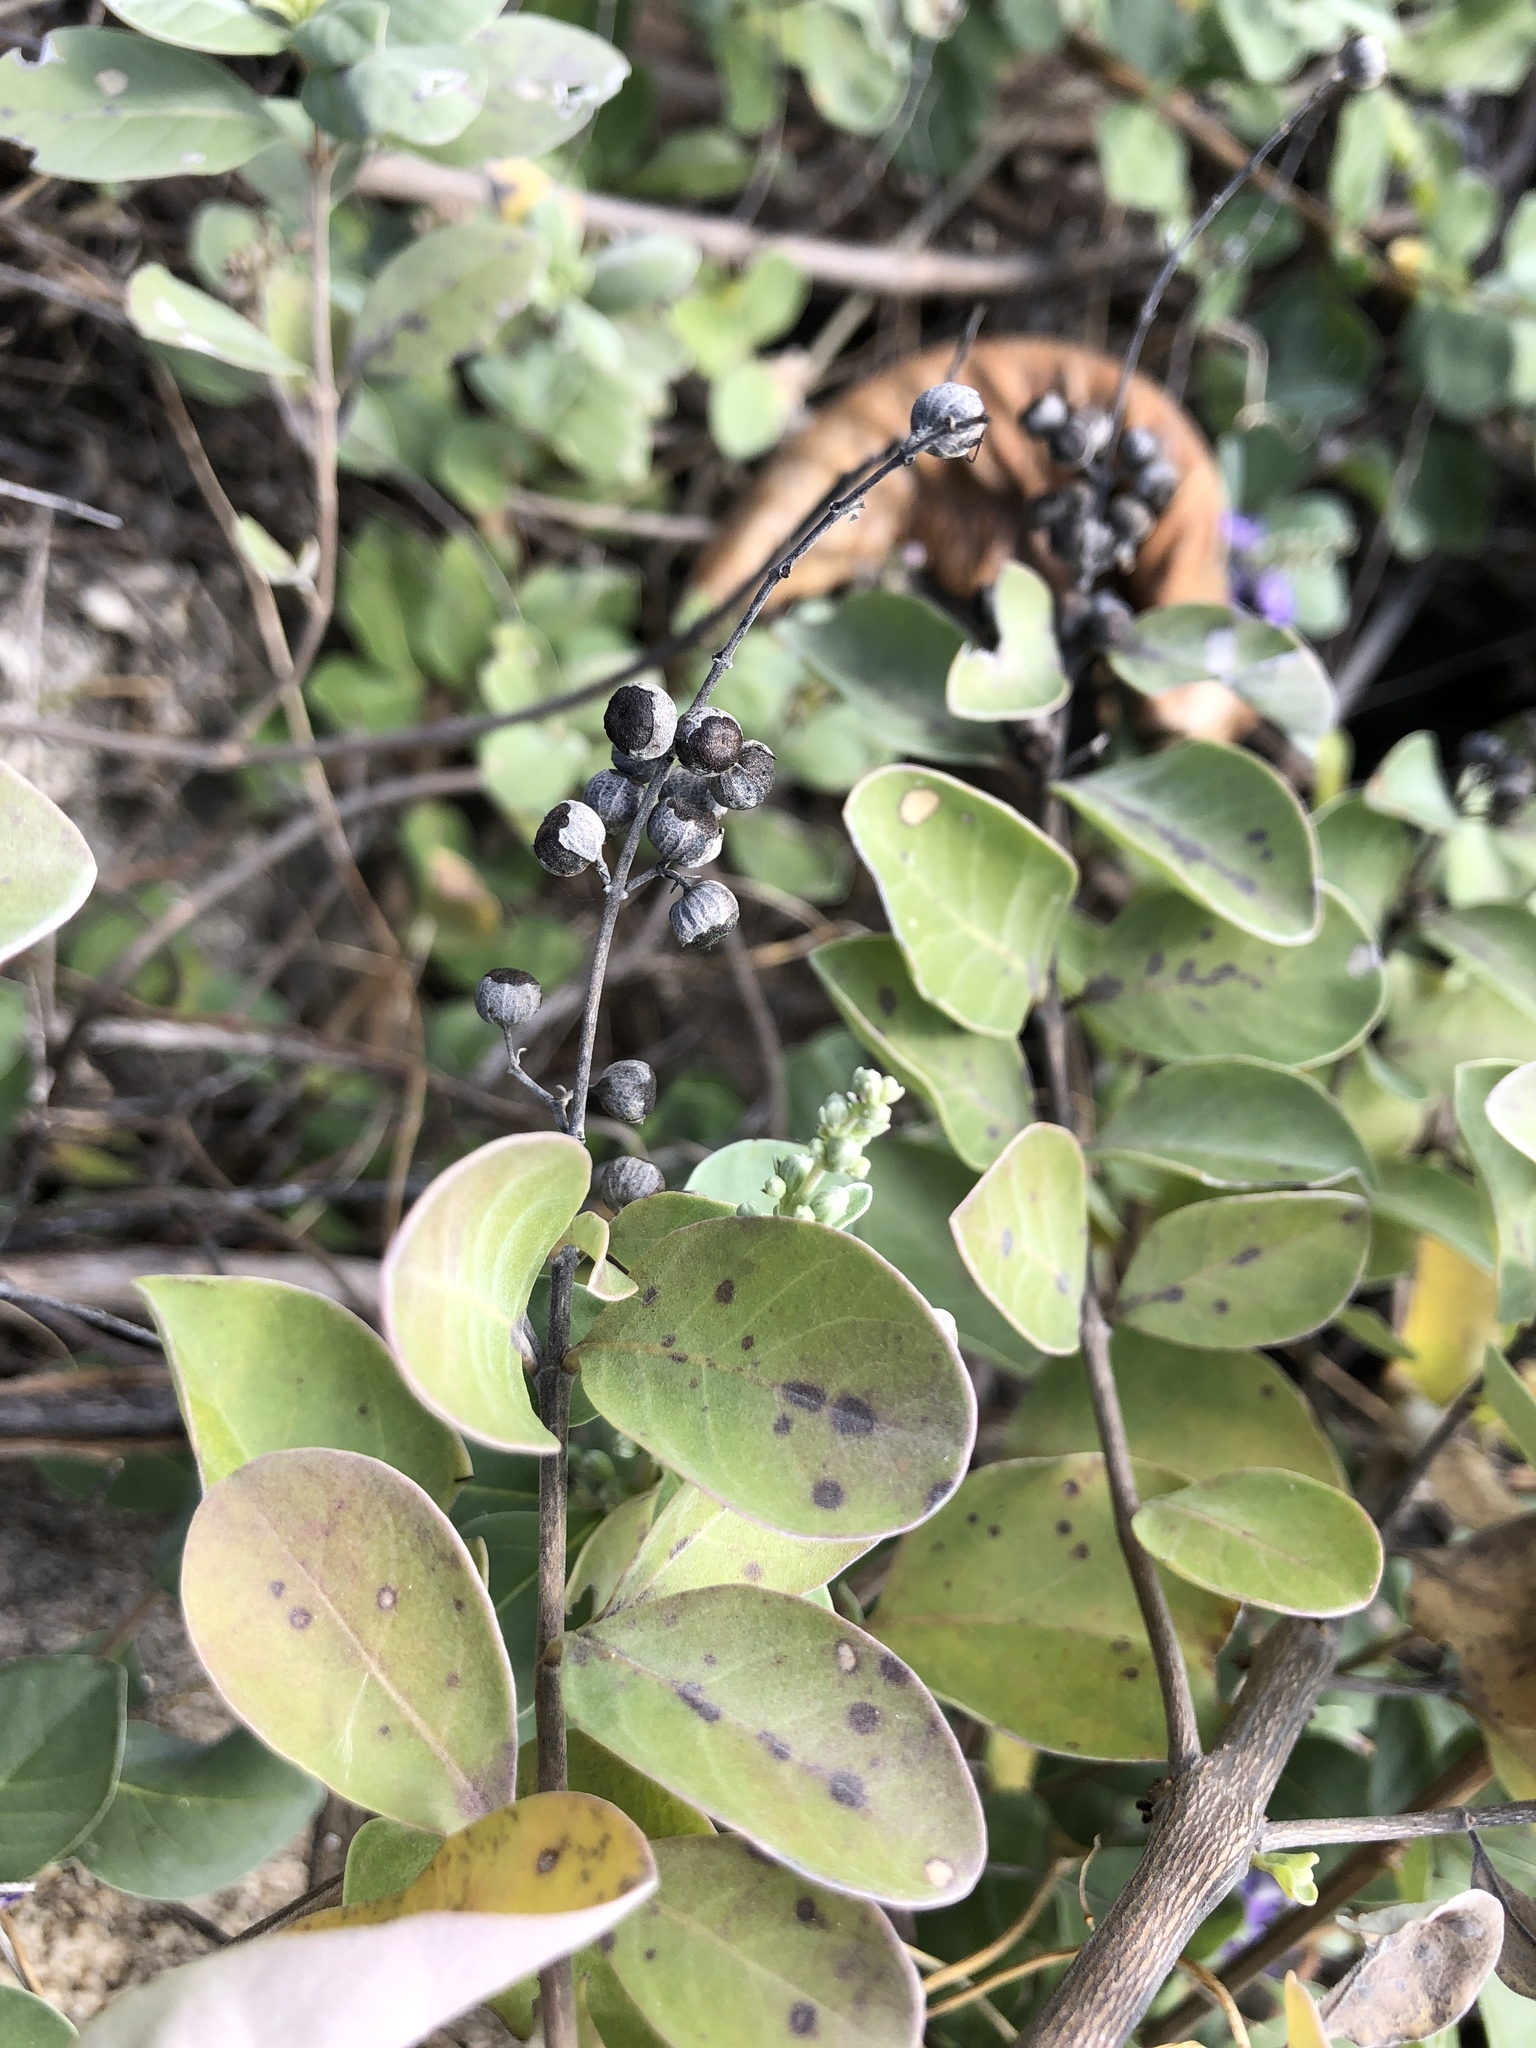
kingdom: Plantae
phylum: Tracheophyta
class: Magnoliopsida
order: Lamiales
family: Lamiaceae
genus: Vitex
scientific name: Vitex rotundifolia
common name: Beach vitex
